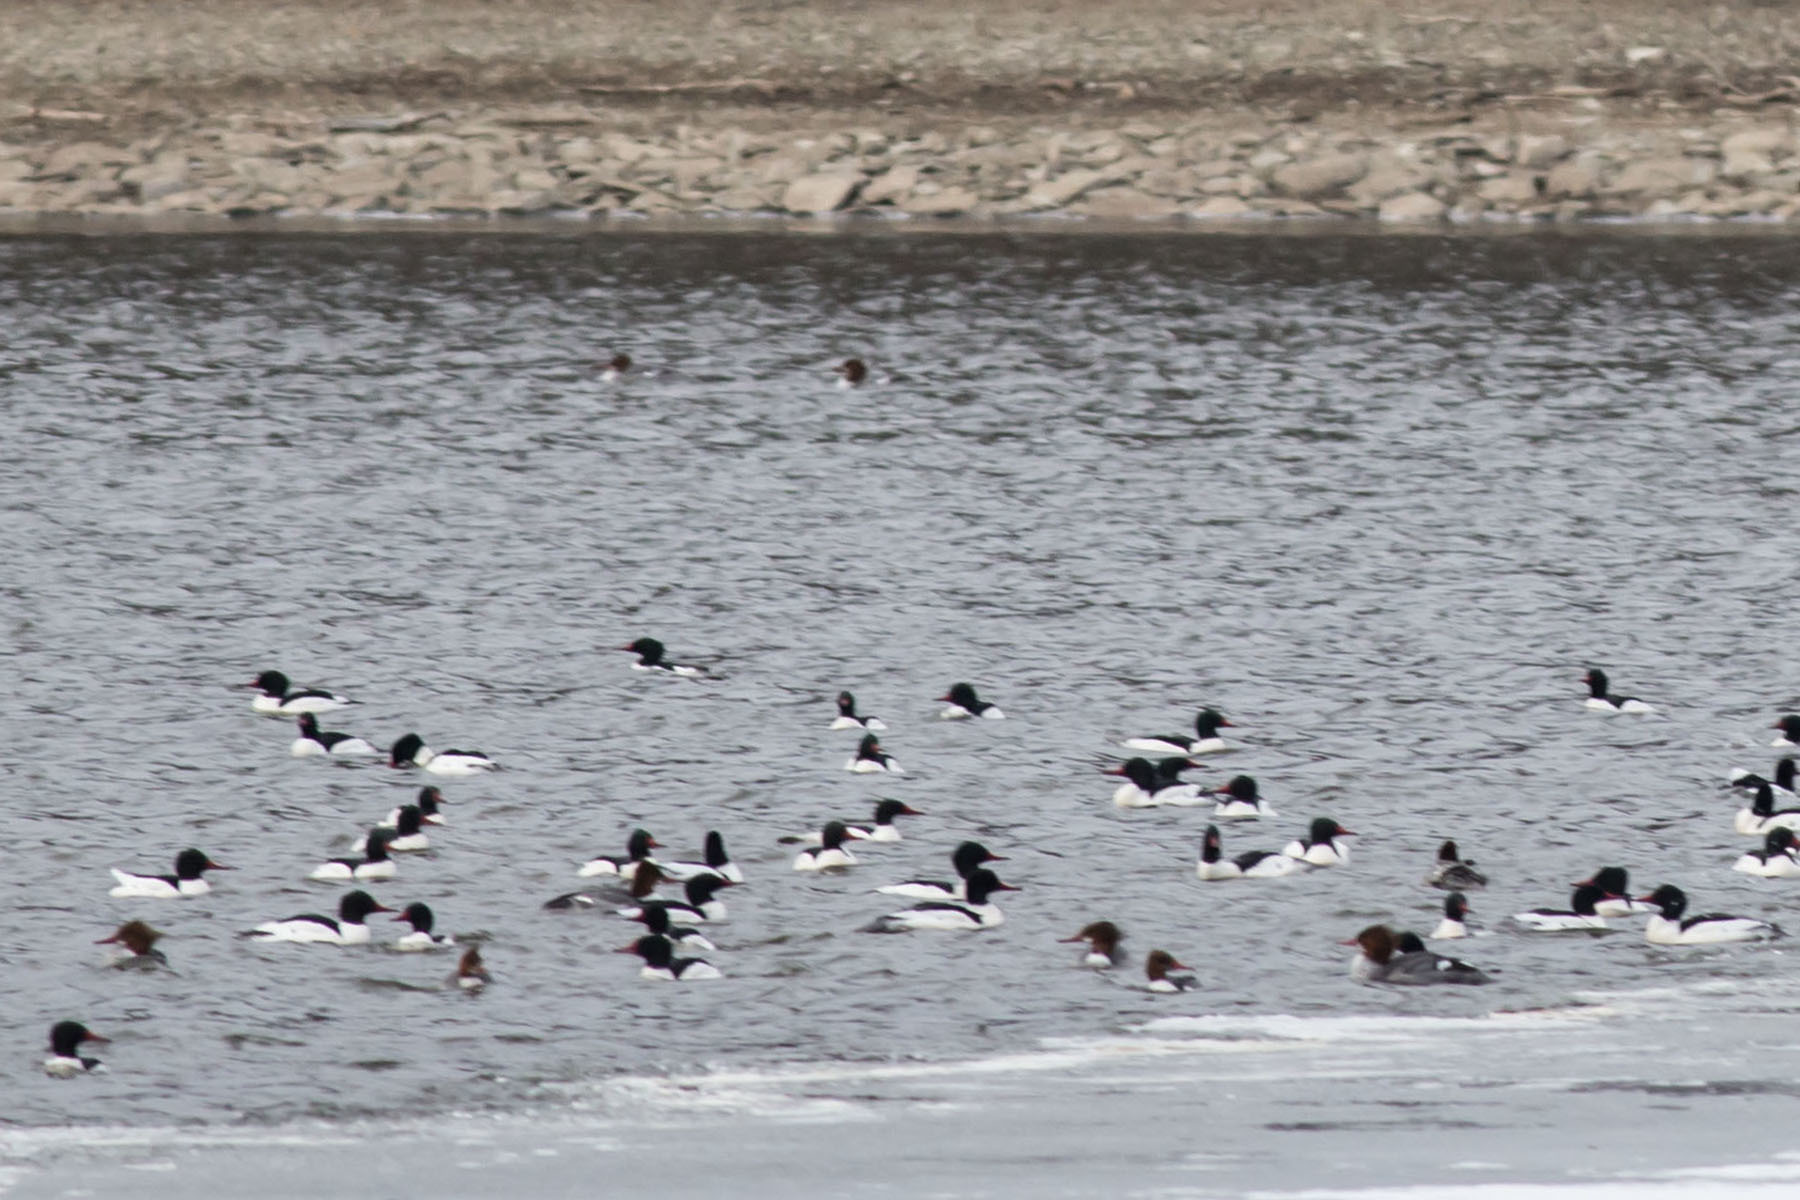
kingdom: Animalia
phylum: Chordata
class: Aves
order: Anseriformes
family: Anatidae
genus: Mergus
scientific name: Mergus merganser
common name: Common merganser
